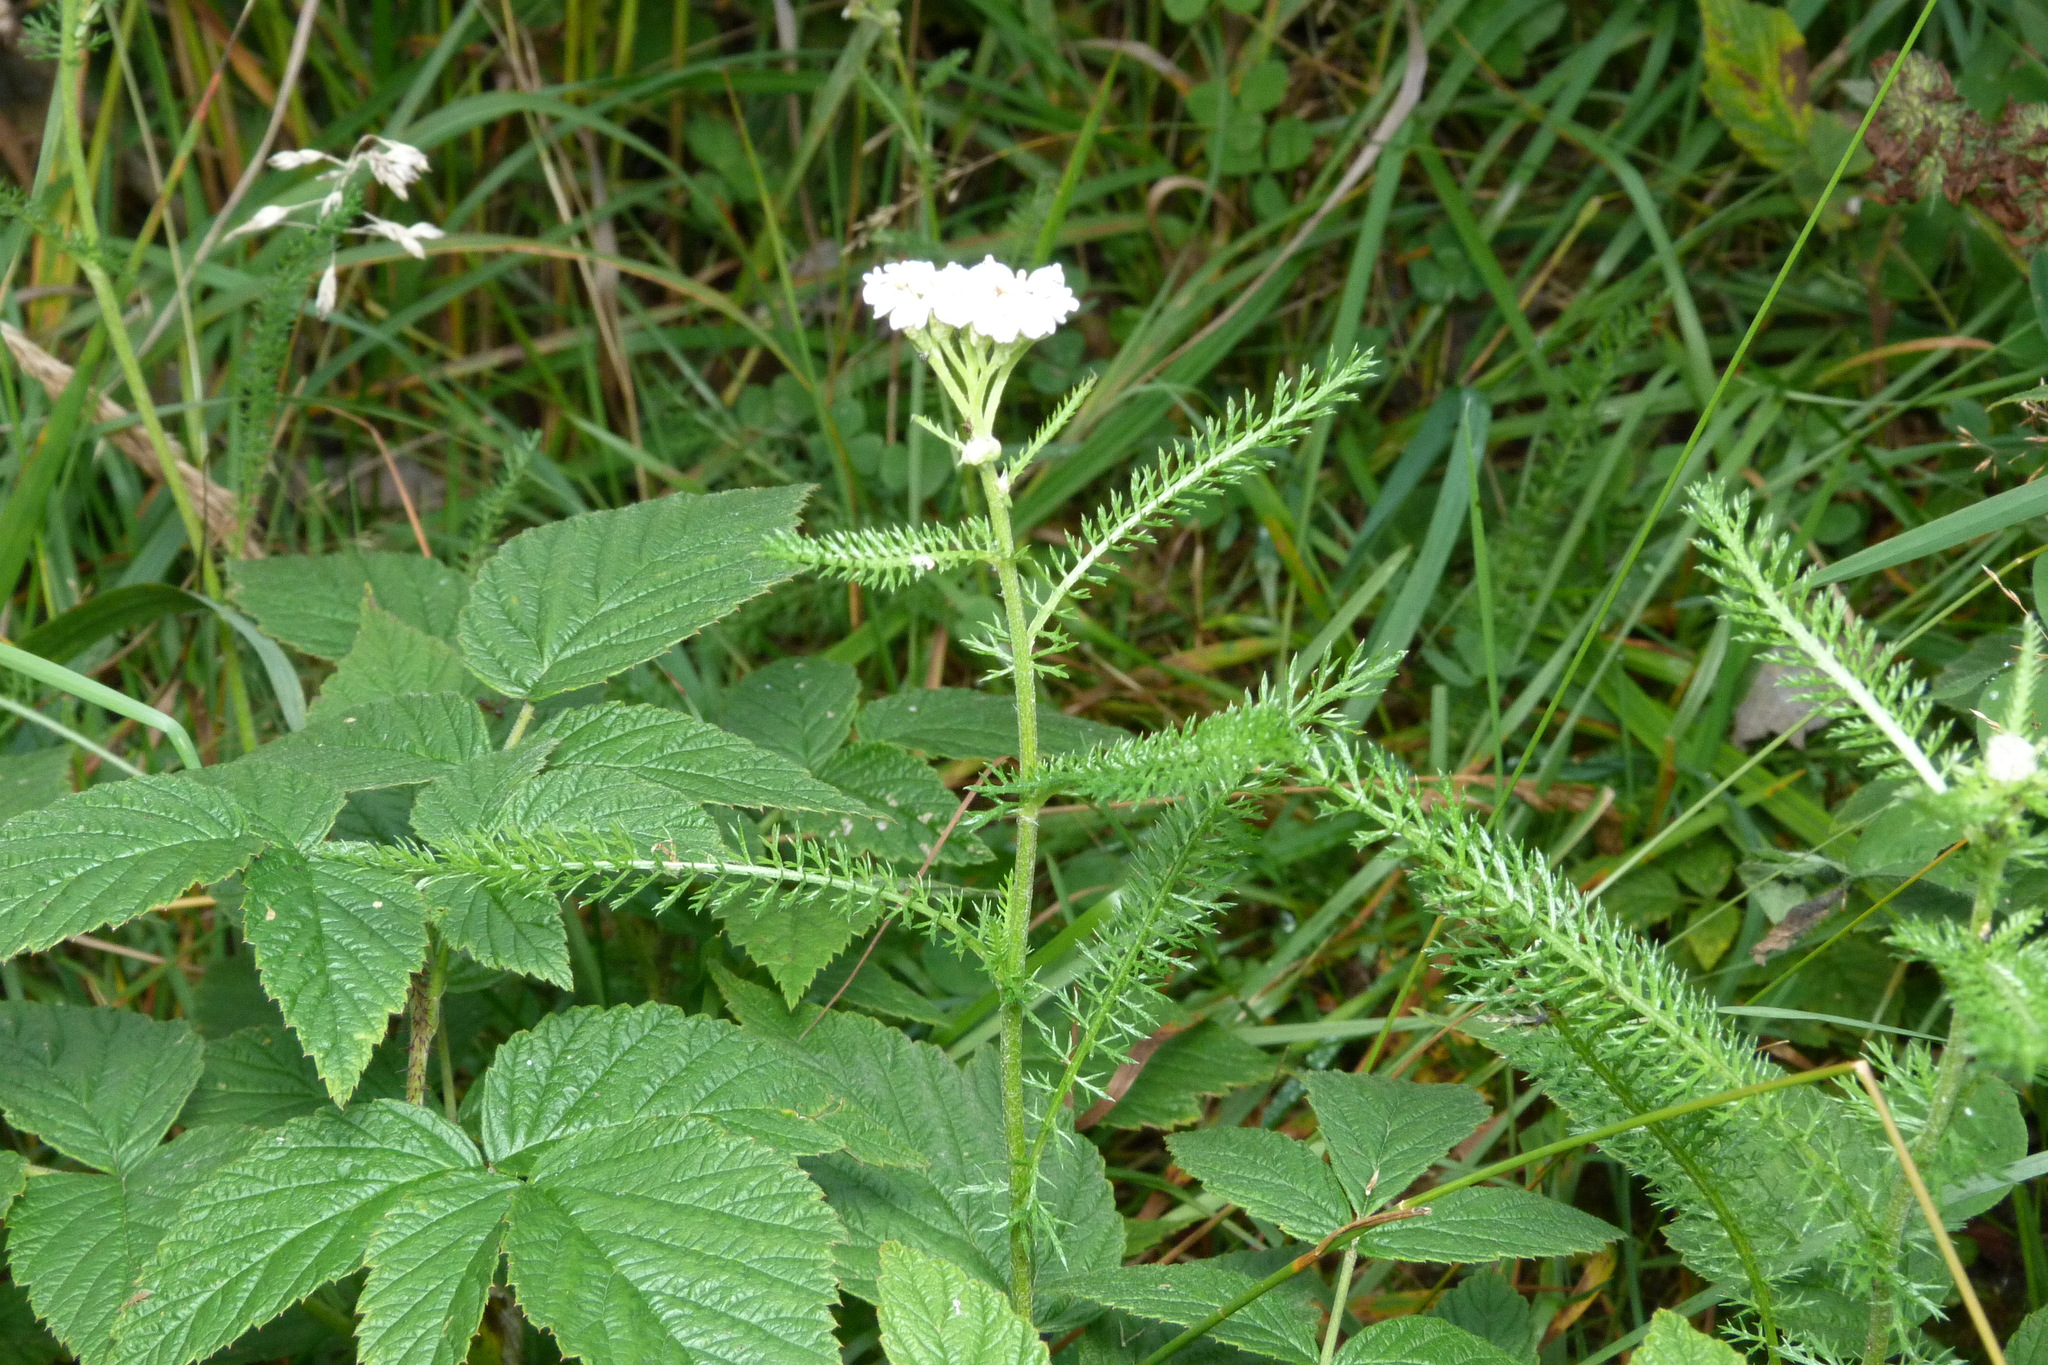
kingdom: Plantae
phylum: Tracheophyta
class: Magnoliopsida
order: Asterales
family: Asteraceae
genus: Achillea
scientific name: Achillea millefolium
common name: Yarrow
